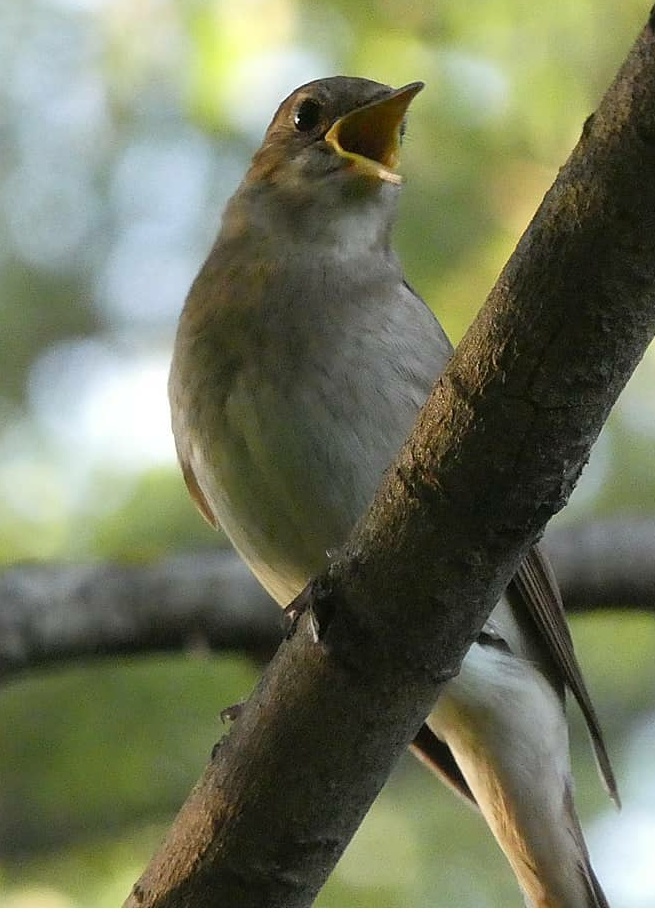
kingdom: Animalia
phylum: Chordata
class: Aves
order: Passeriformes
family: Muscicapidae
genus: Luscinia
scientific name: Luscinia luscinia
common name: Thrush nightingale
